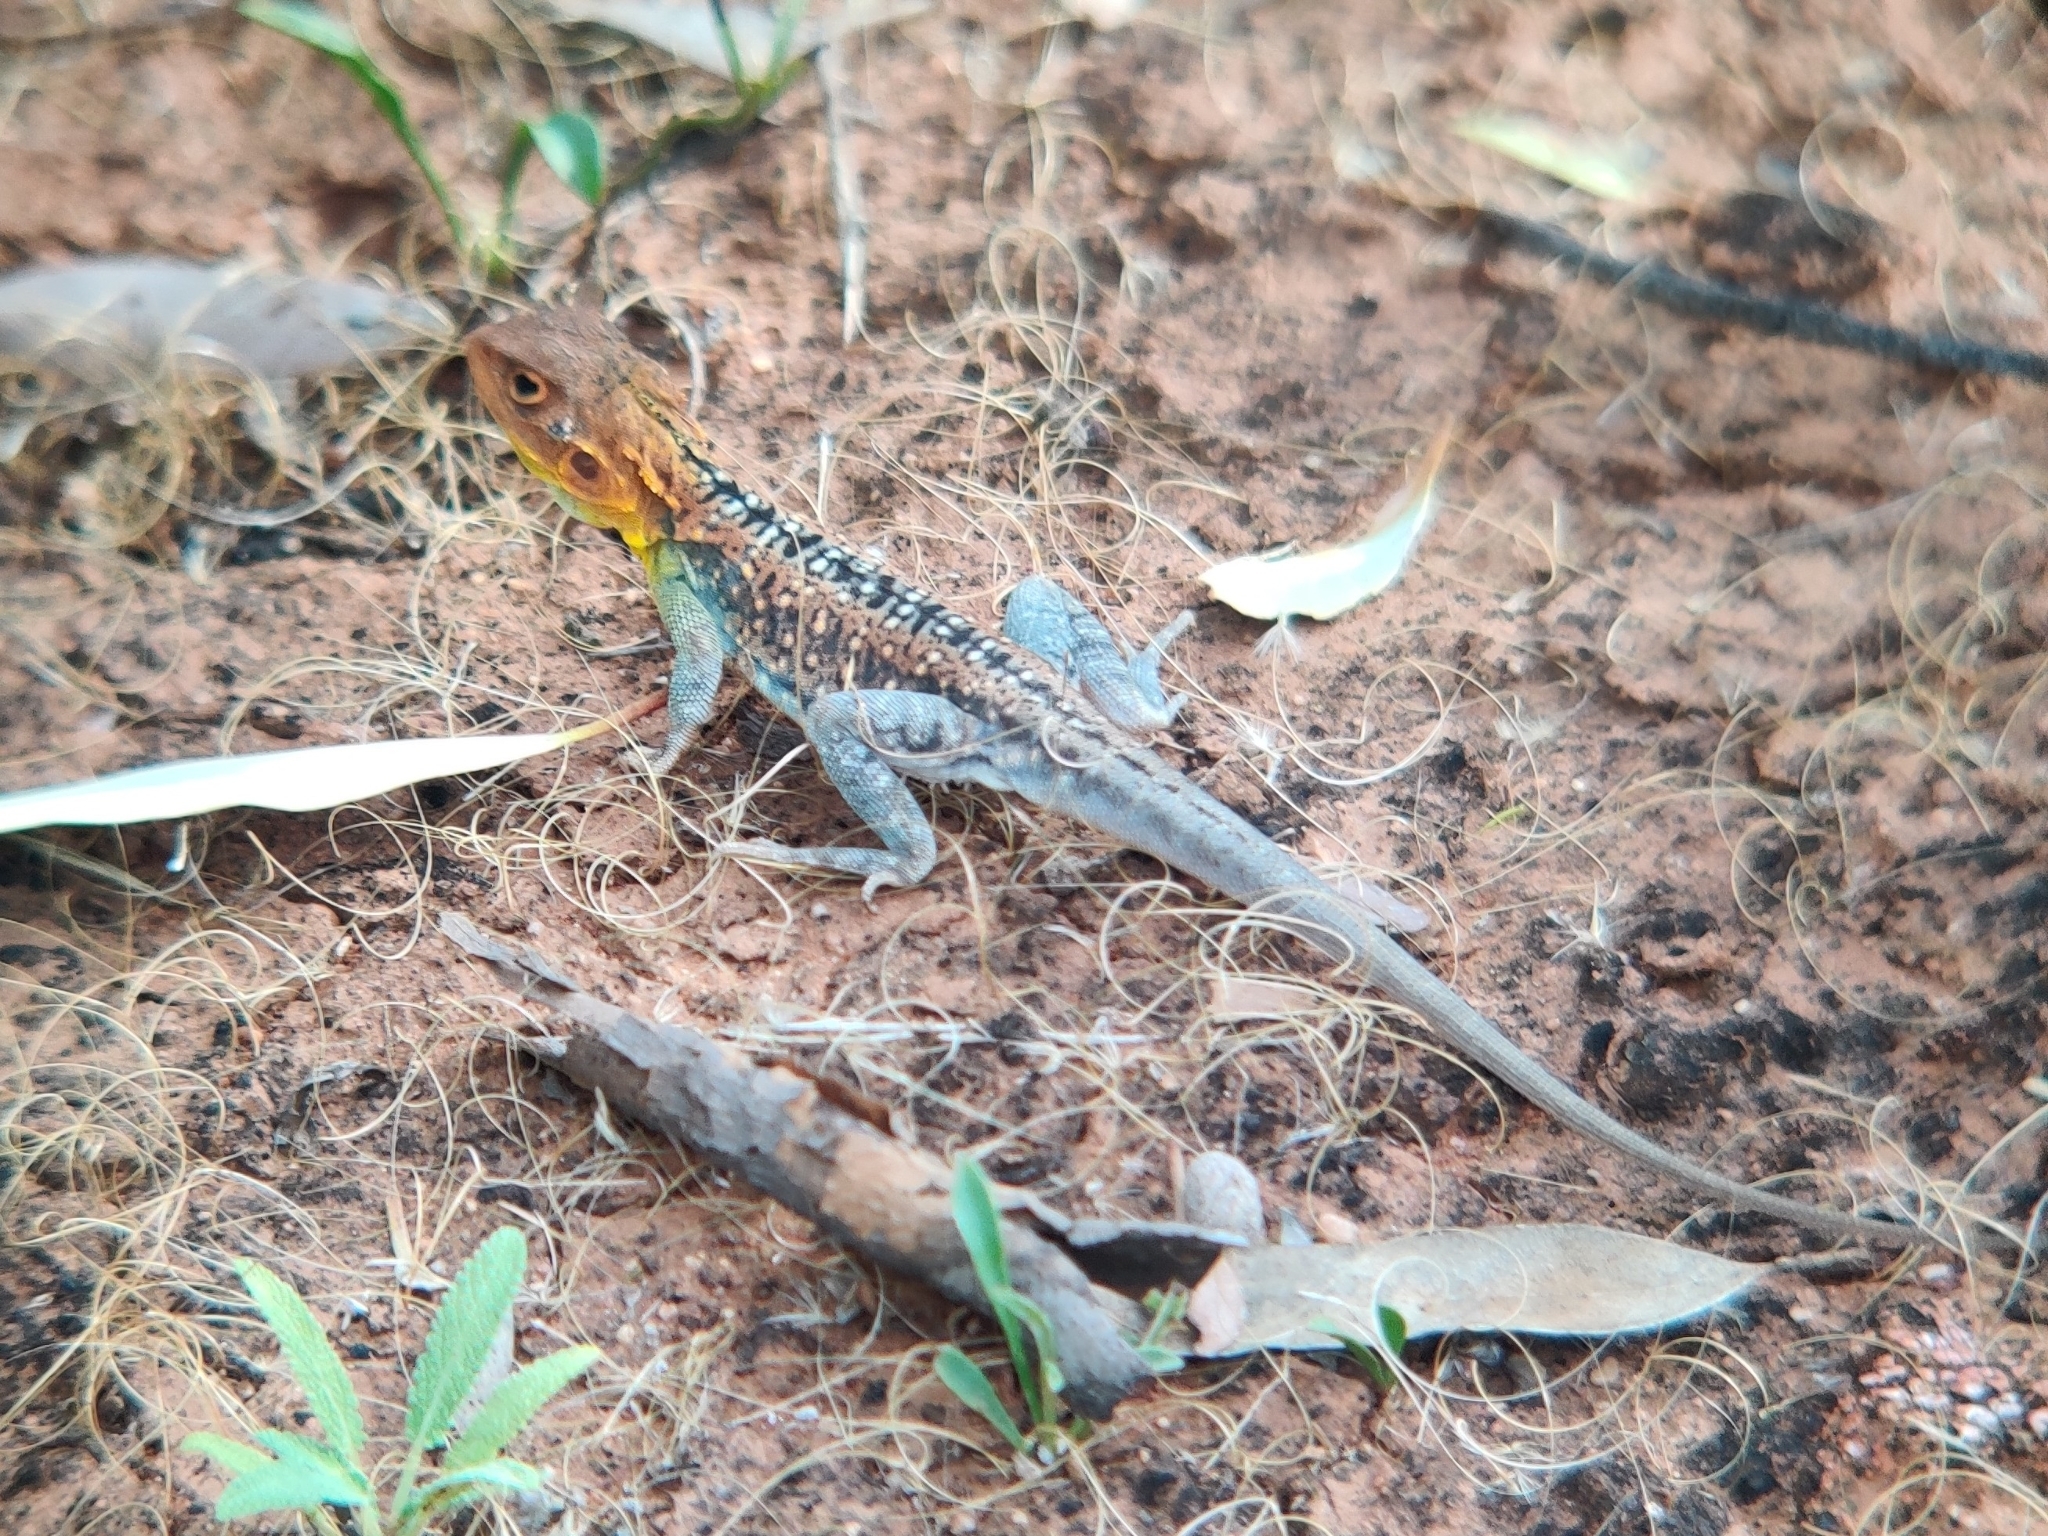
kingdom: Animalia
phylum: Chordata
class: Squamata
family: Agamidae
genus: Ctenophorus
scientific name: Ctenophorus pictus
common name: Painted dragon
